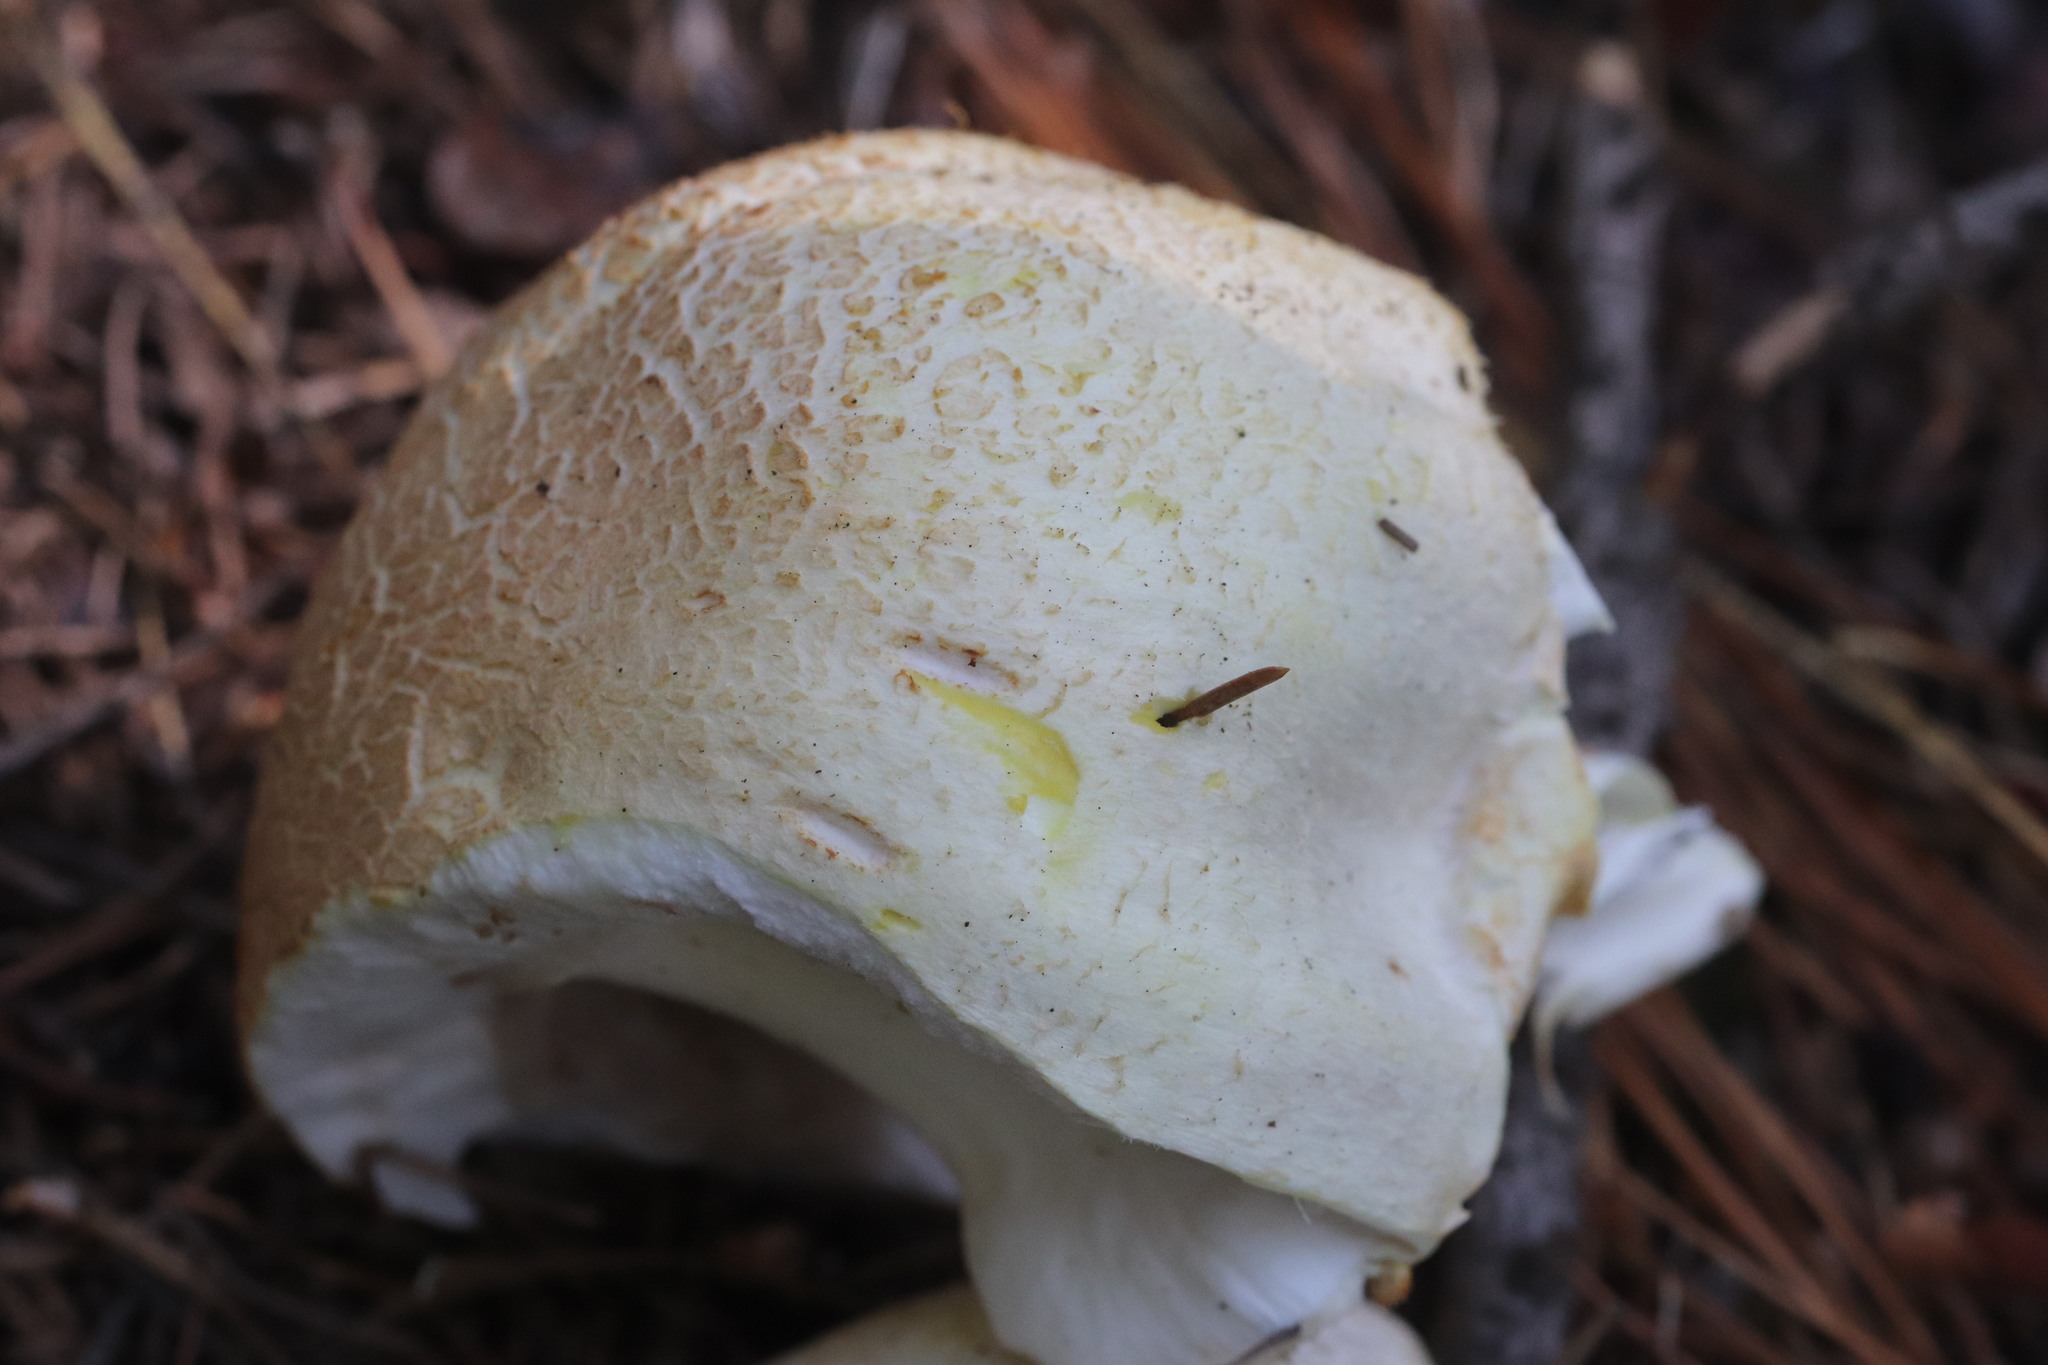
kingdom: Fungi
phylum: Basidiomycota
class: Agaricomycetes
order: Agaricales
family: Agaricaceae
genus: Agaricus
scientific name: Agaricus sylvicola
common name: Wood mushroom
